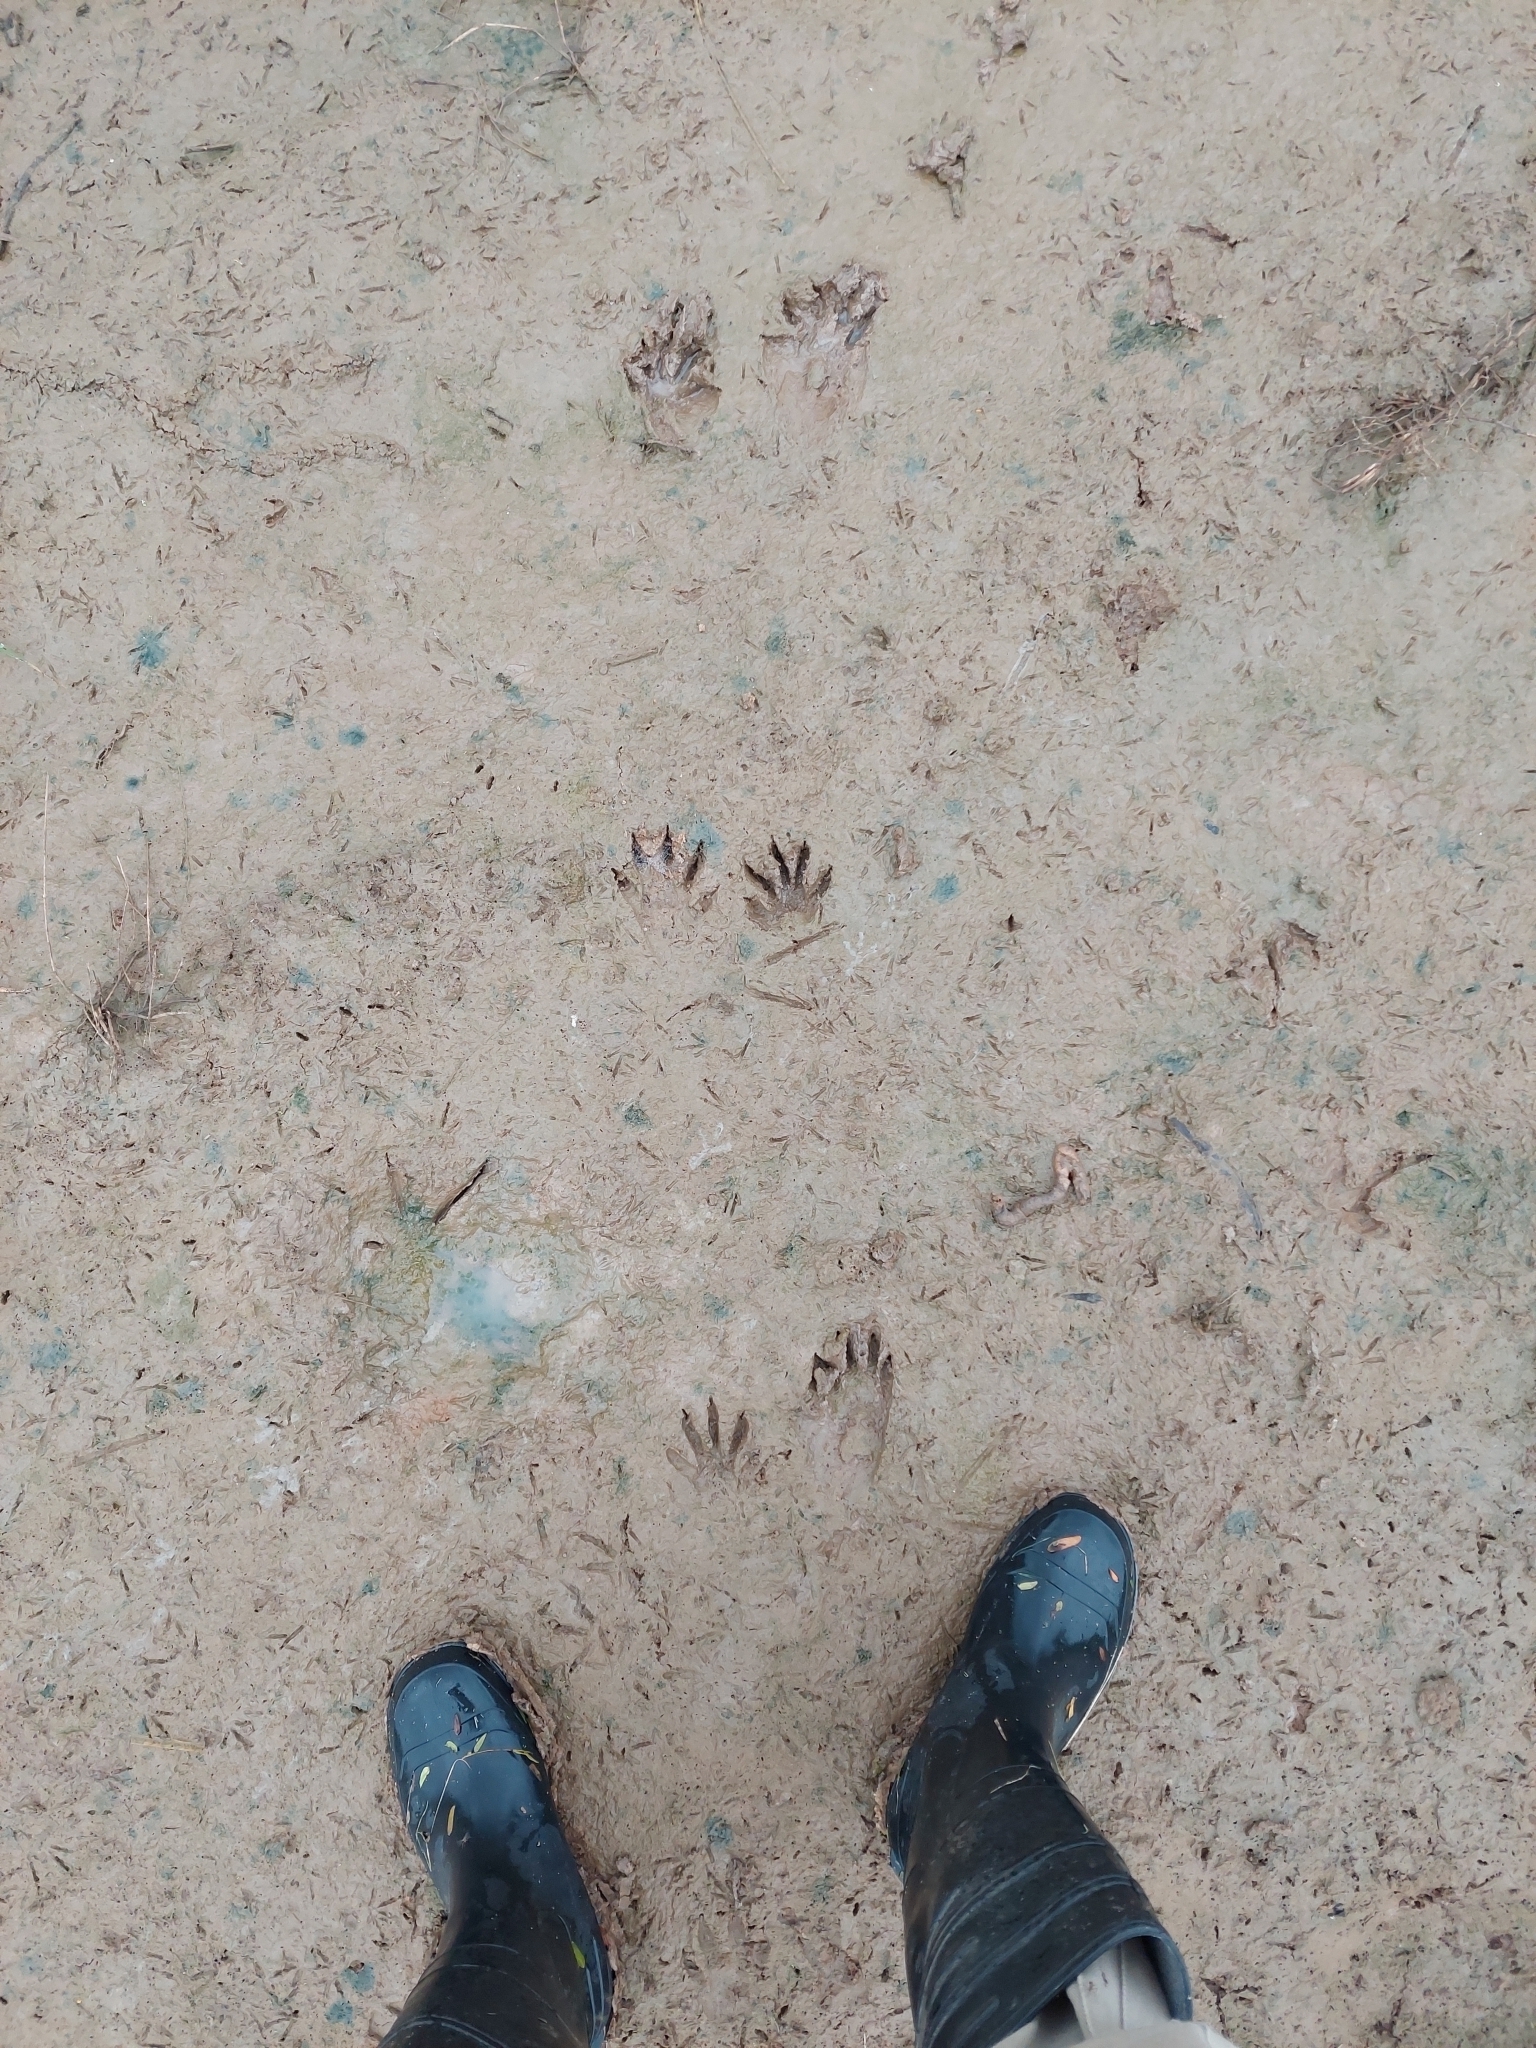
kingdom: Animalia
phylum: Chordata
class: Mammalia
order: Carnivora
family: Procyonidae
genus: Procyon
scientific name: Procyon cancrivorus
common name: Crab-eating raccoon
